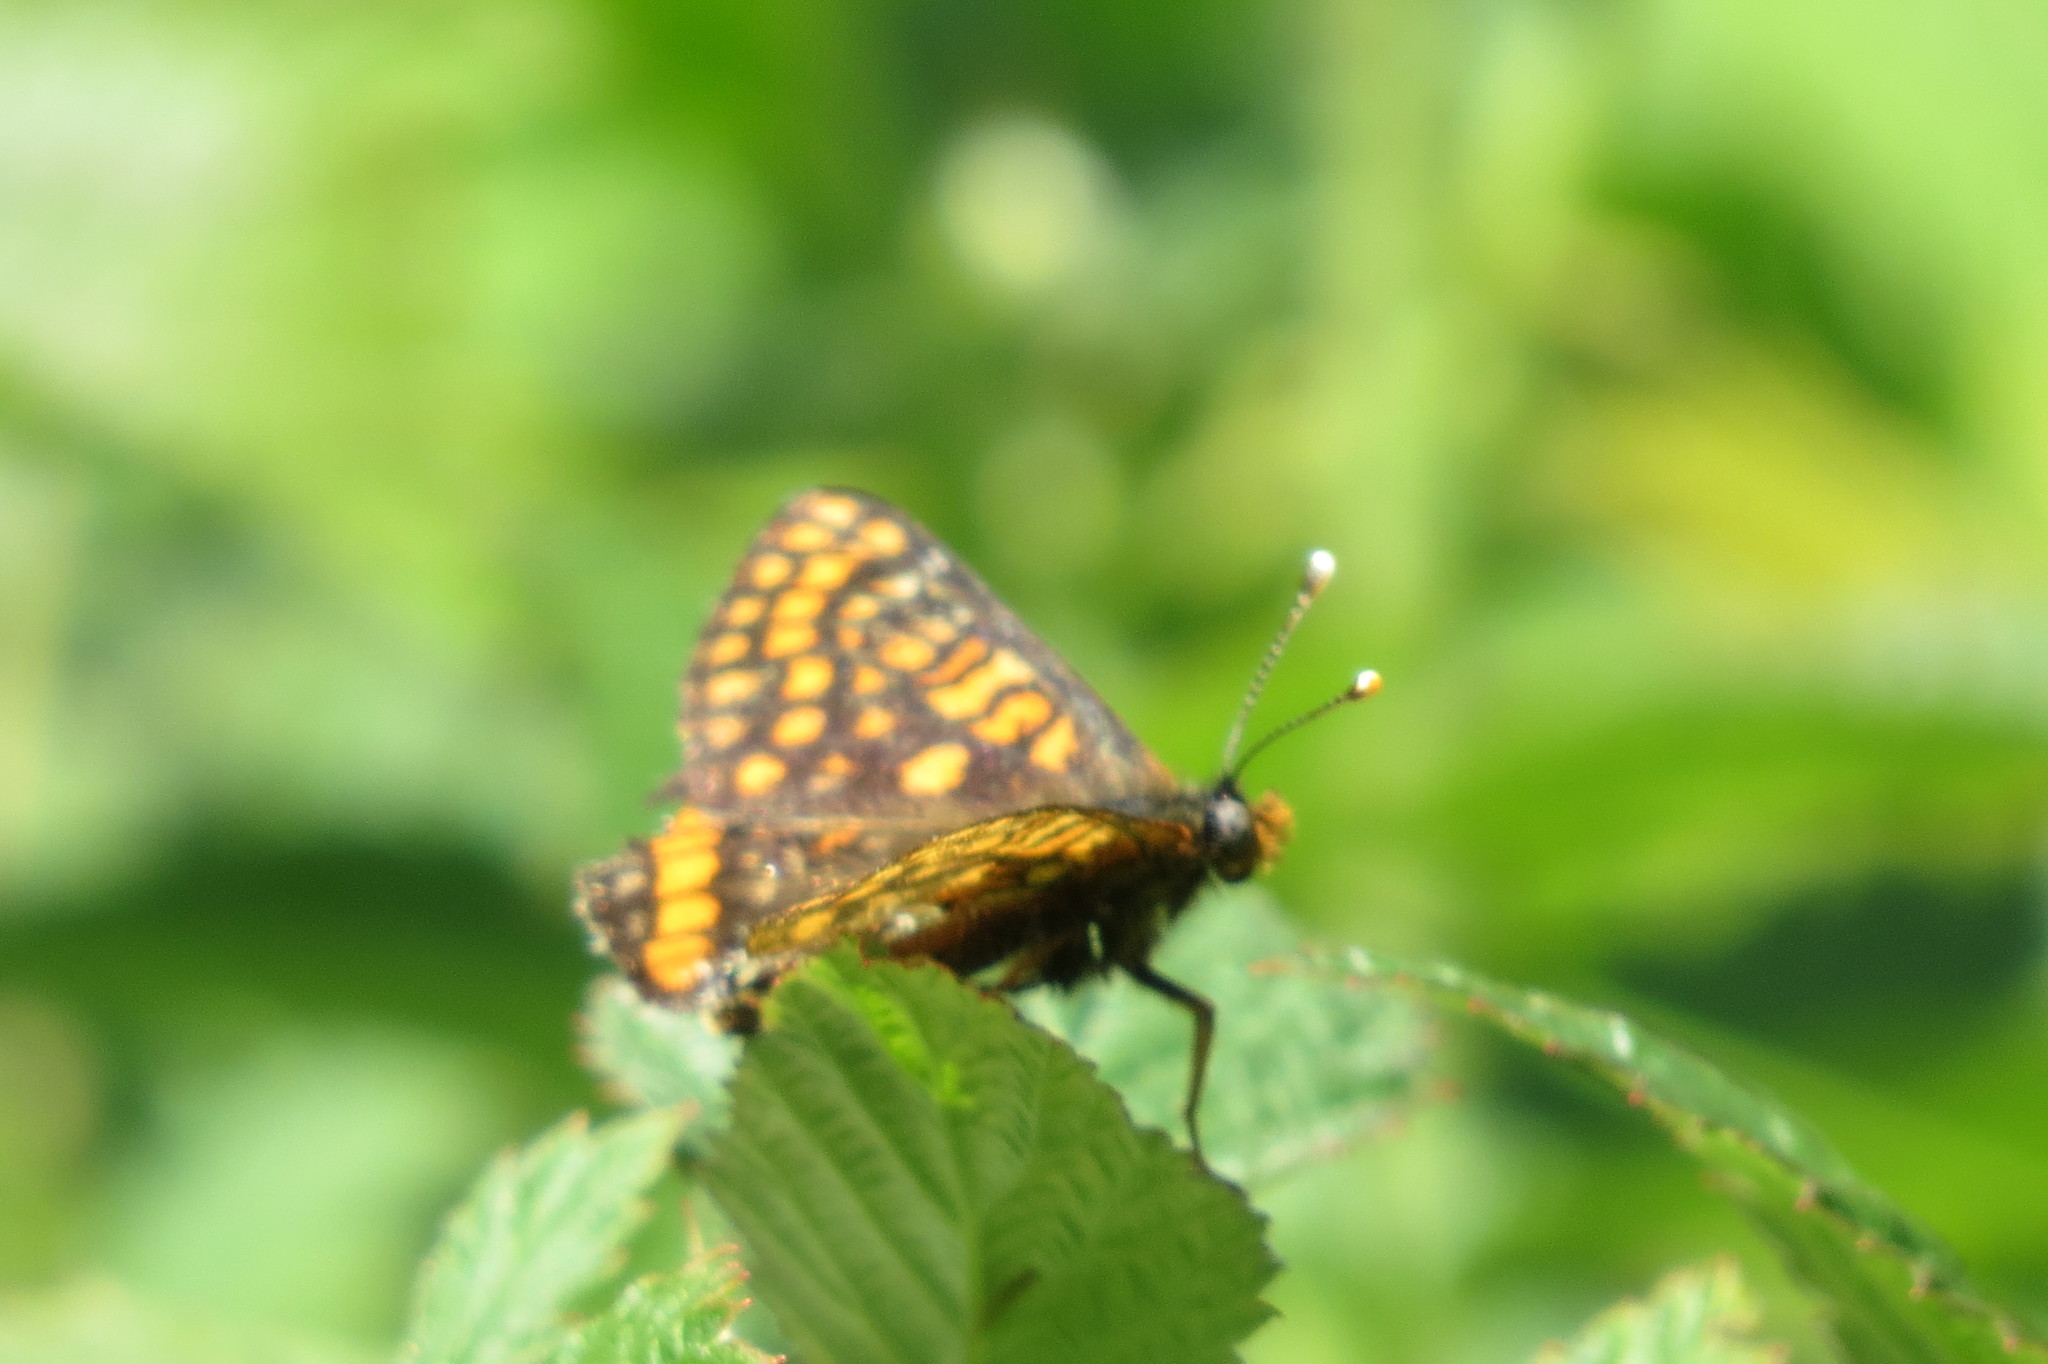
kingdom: Animalia
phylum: Arthropoda
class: Insecta
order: Lepidoptera
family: Nymphalidae
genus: Hypodryas
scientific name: Hypodryas intermedia
